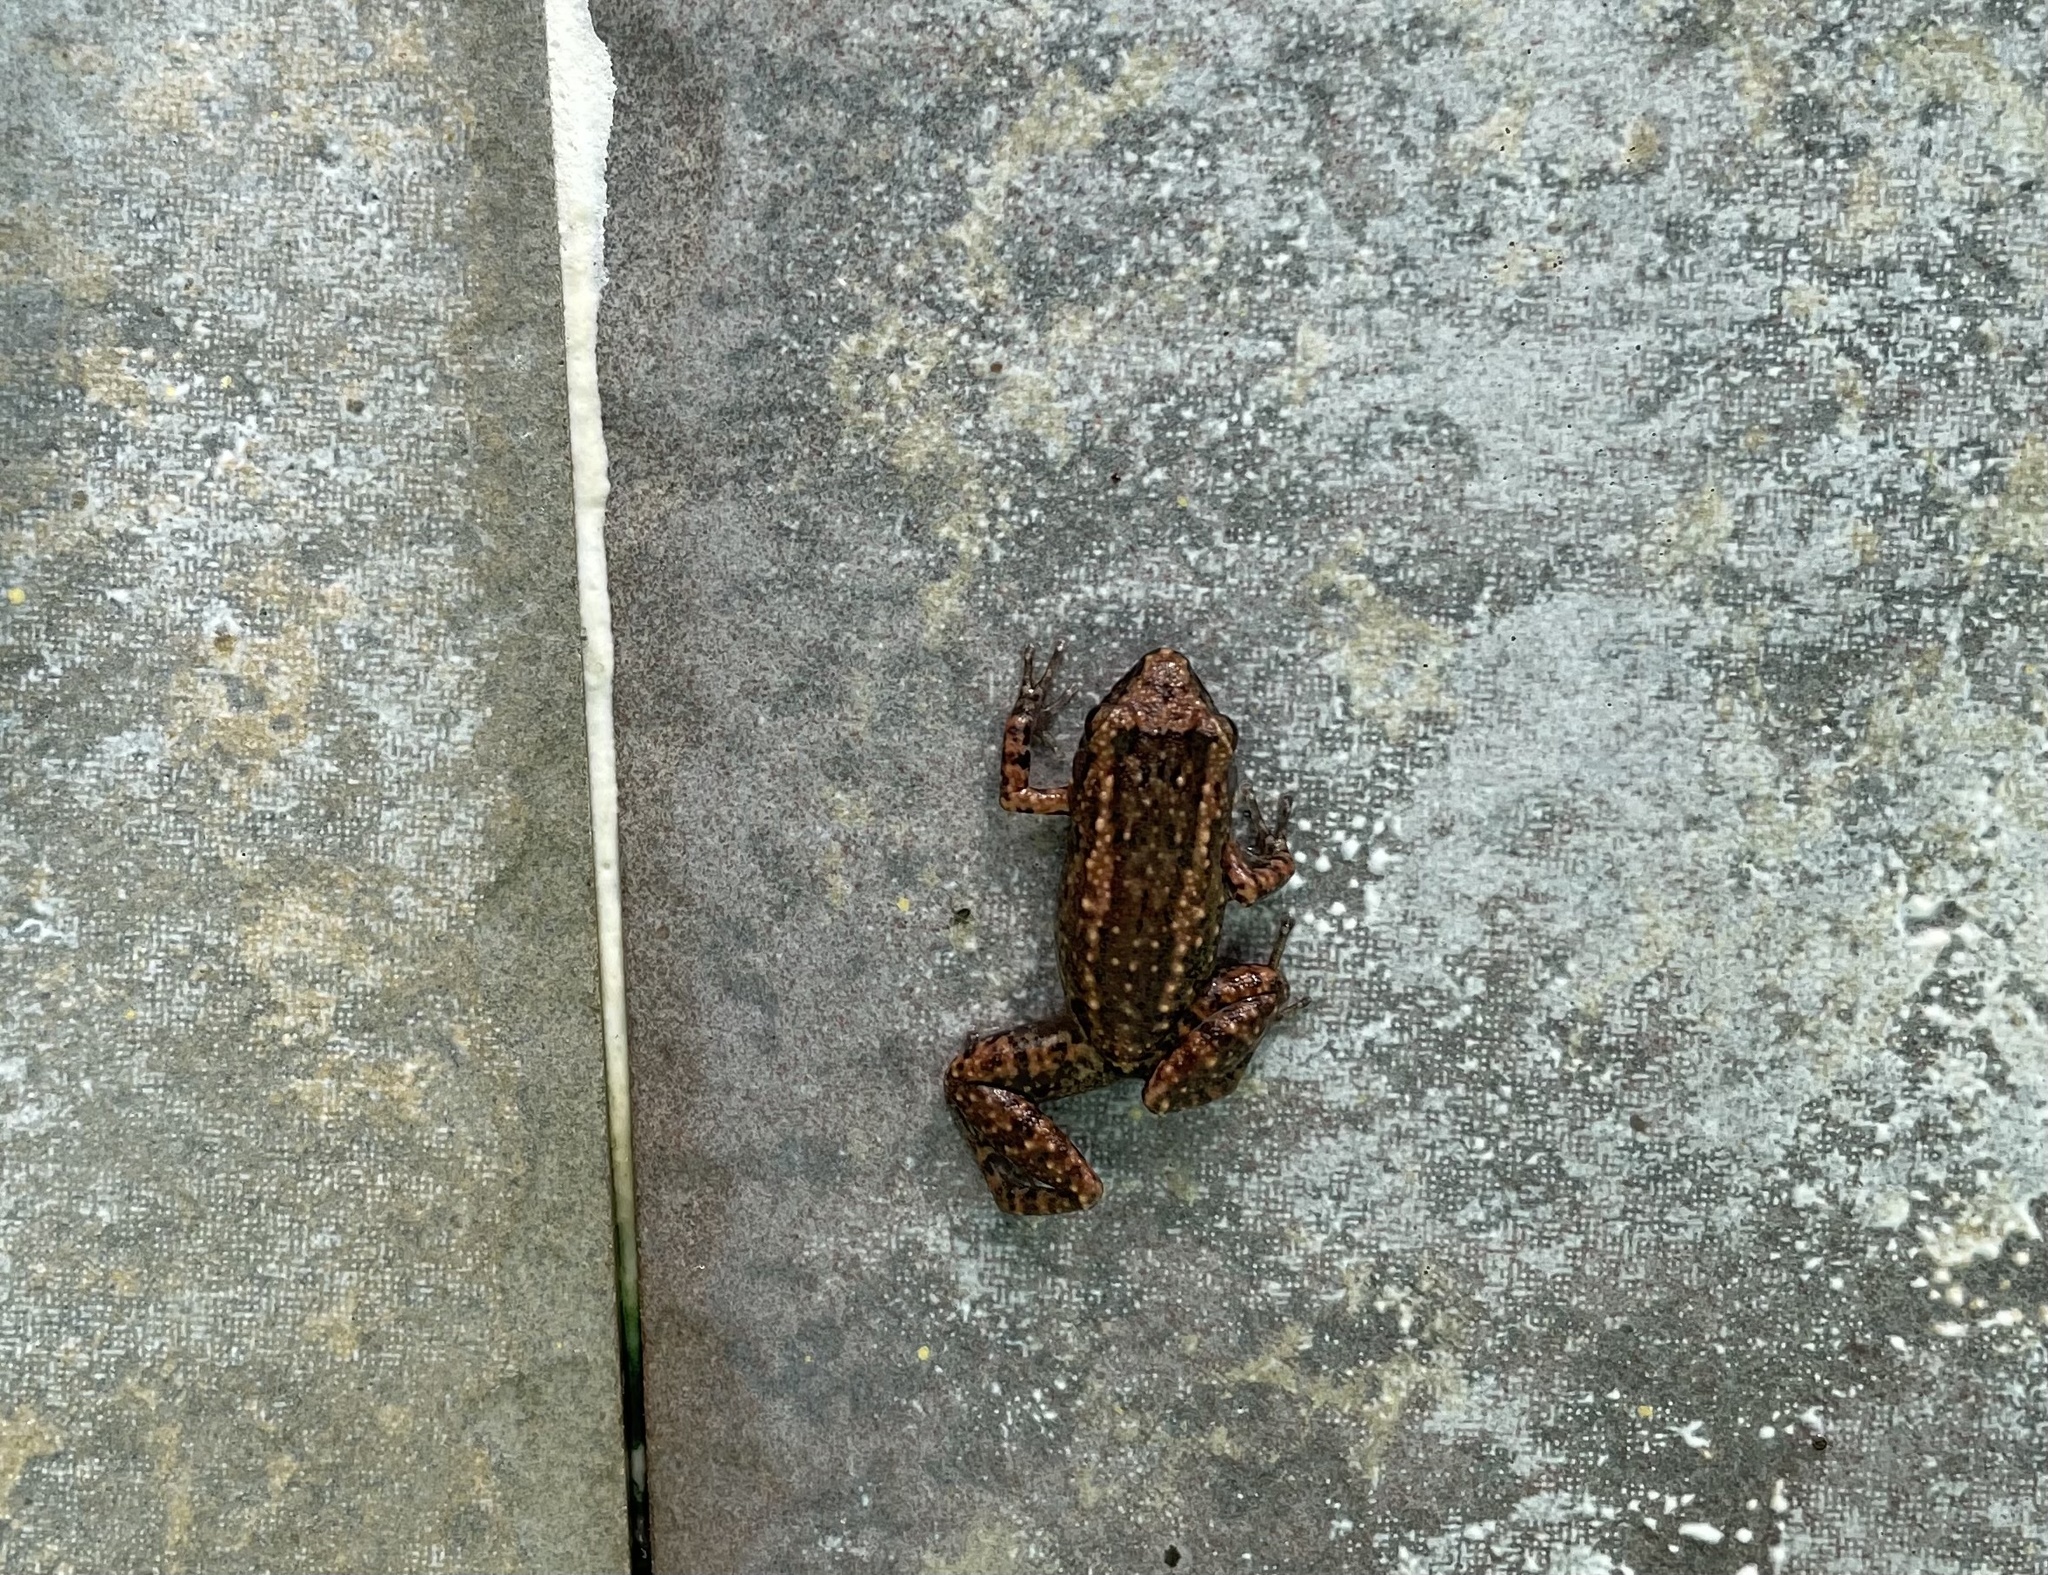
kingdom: Animalia
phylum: Chordata
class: Amphibia
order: Anura
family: Eleutherodactylidae
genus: Eleutherodactylus
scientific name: Eleutherodactylus planirostris
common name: Greenhouse frog
